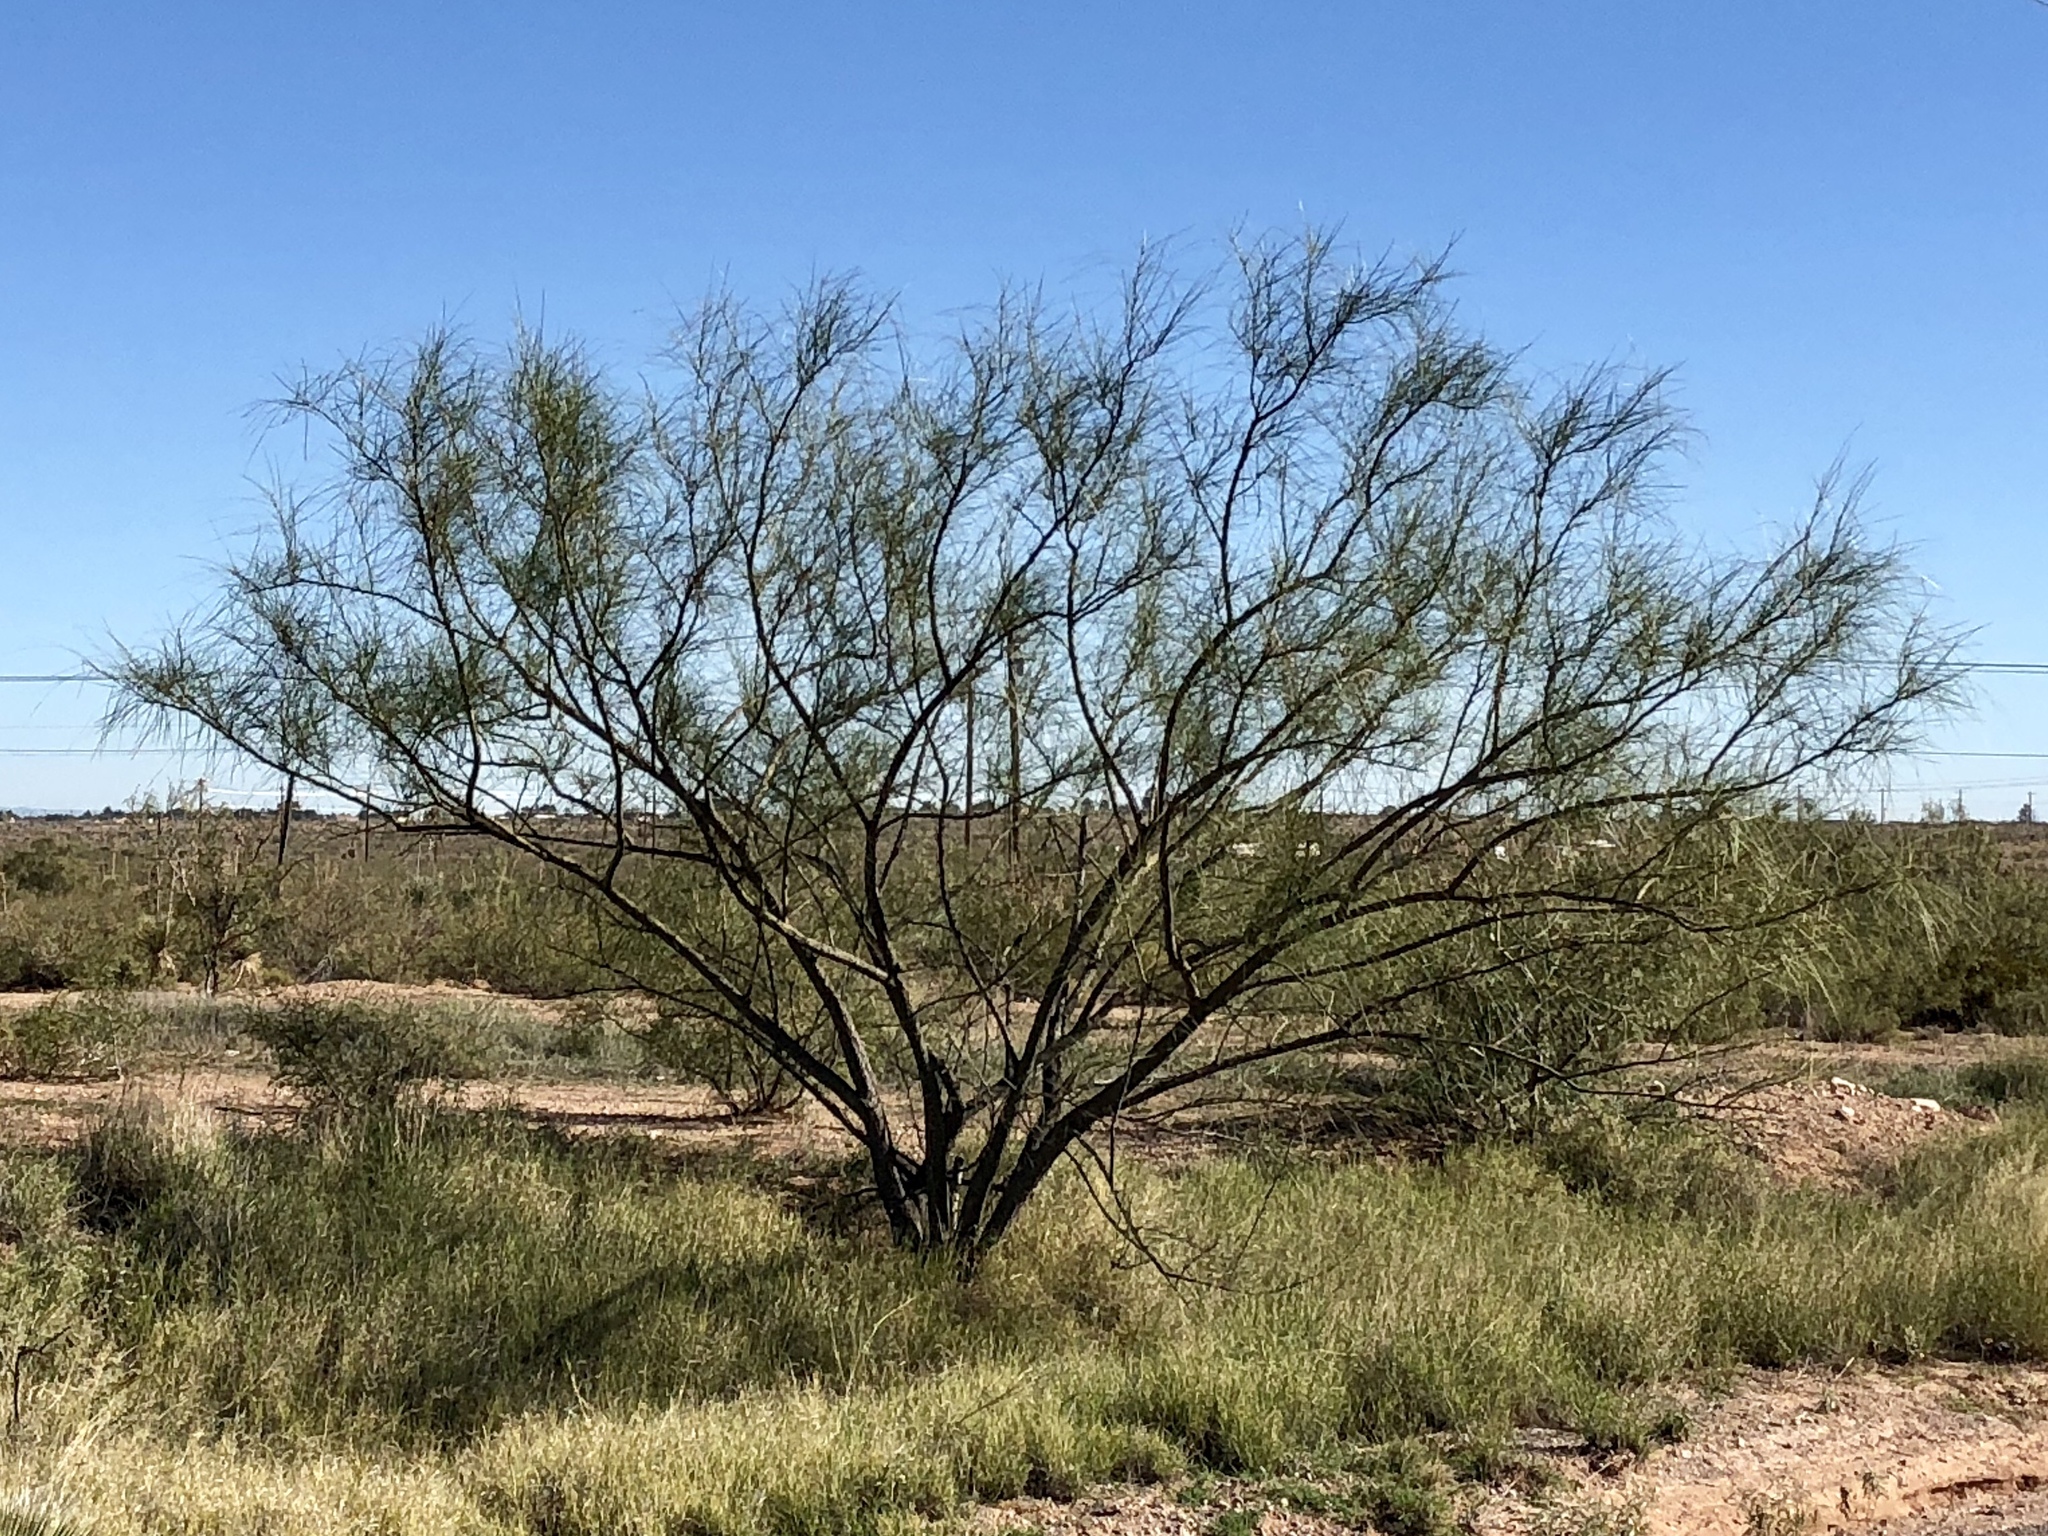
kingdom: Plantae
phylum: Tracheophyta
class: Magnoliopsida
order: Fabales
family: Fabaceae
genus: Parkinsonia
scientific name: Parkinsonia aculeata
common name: Jerusalem thorn
